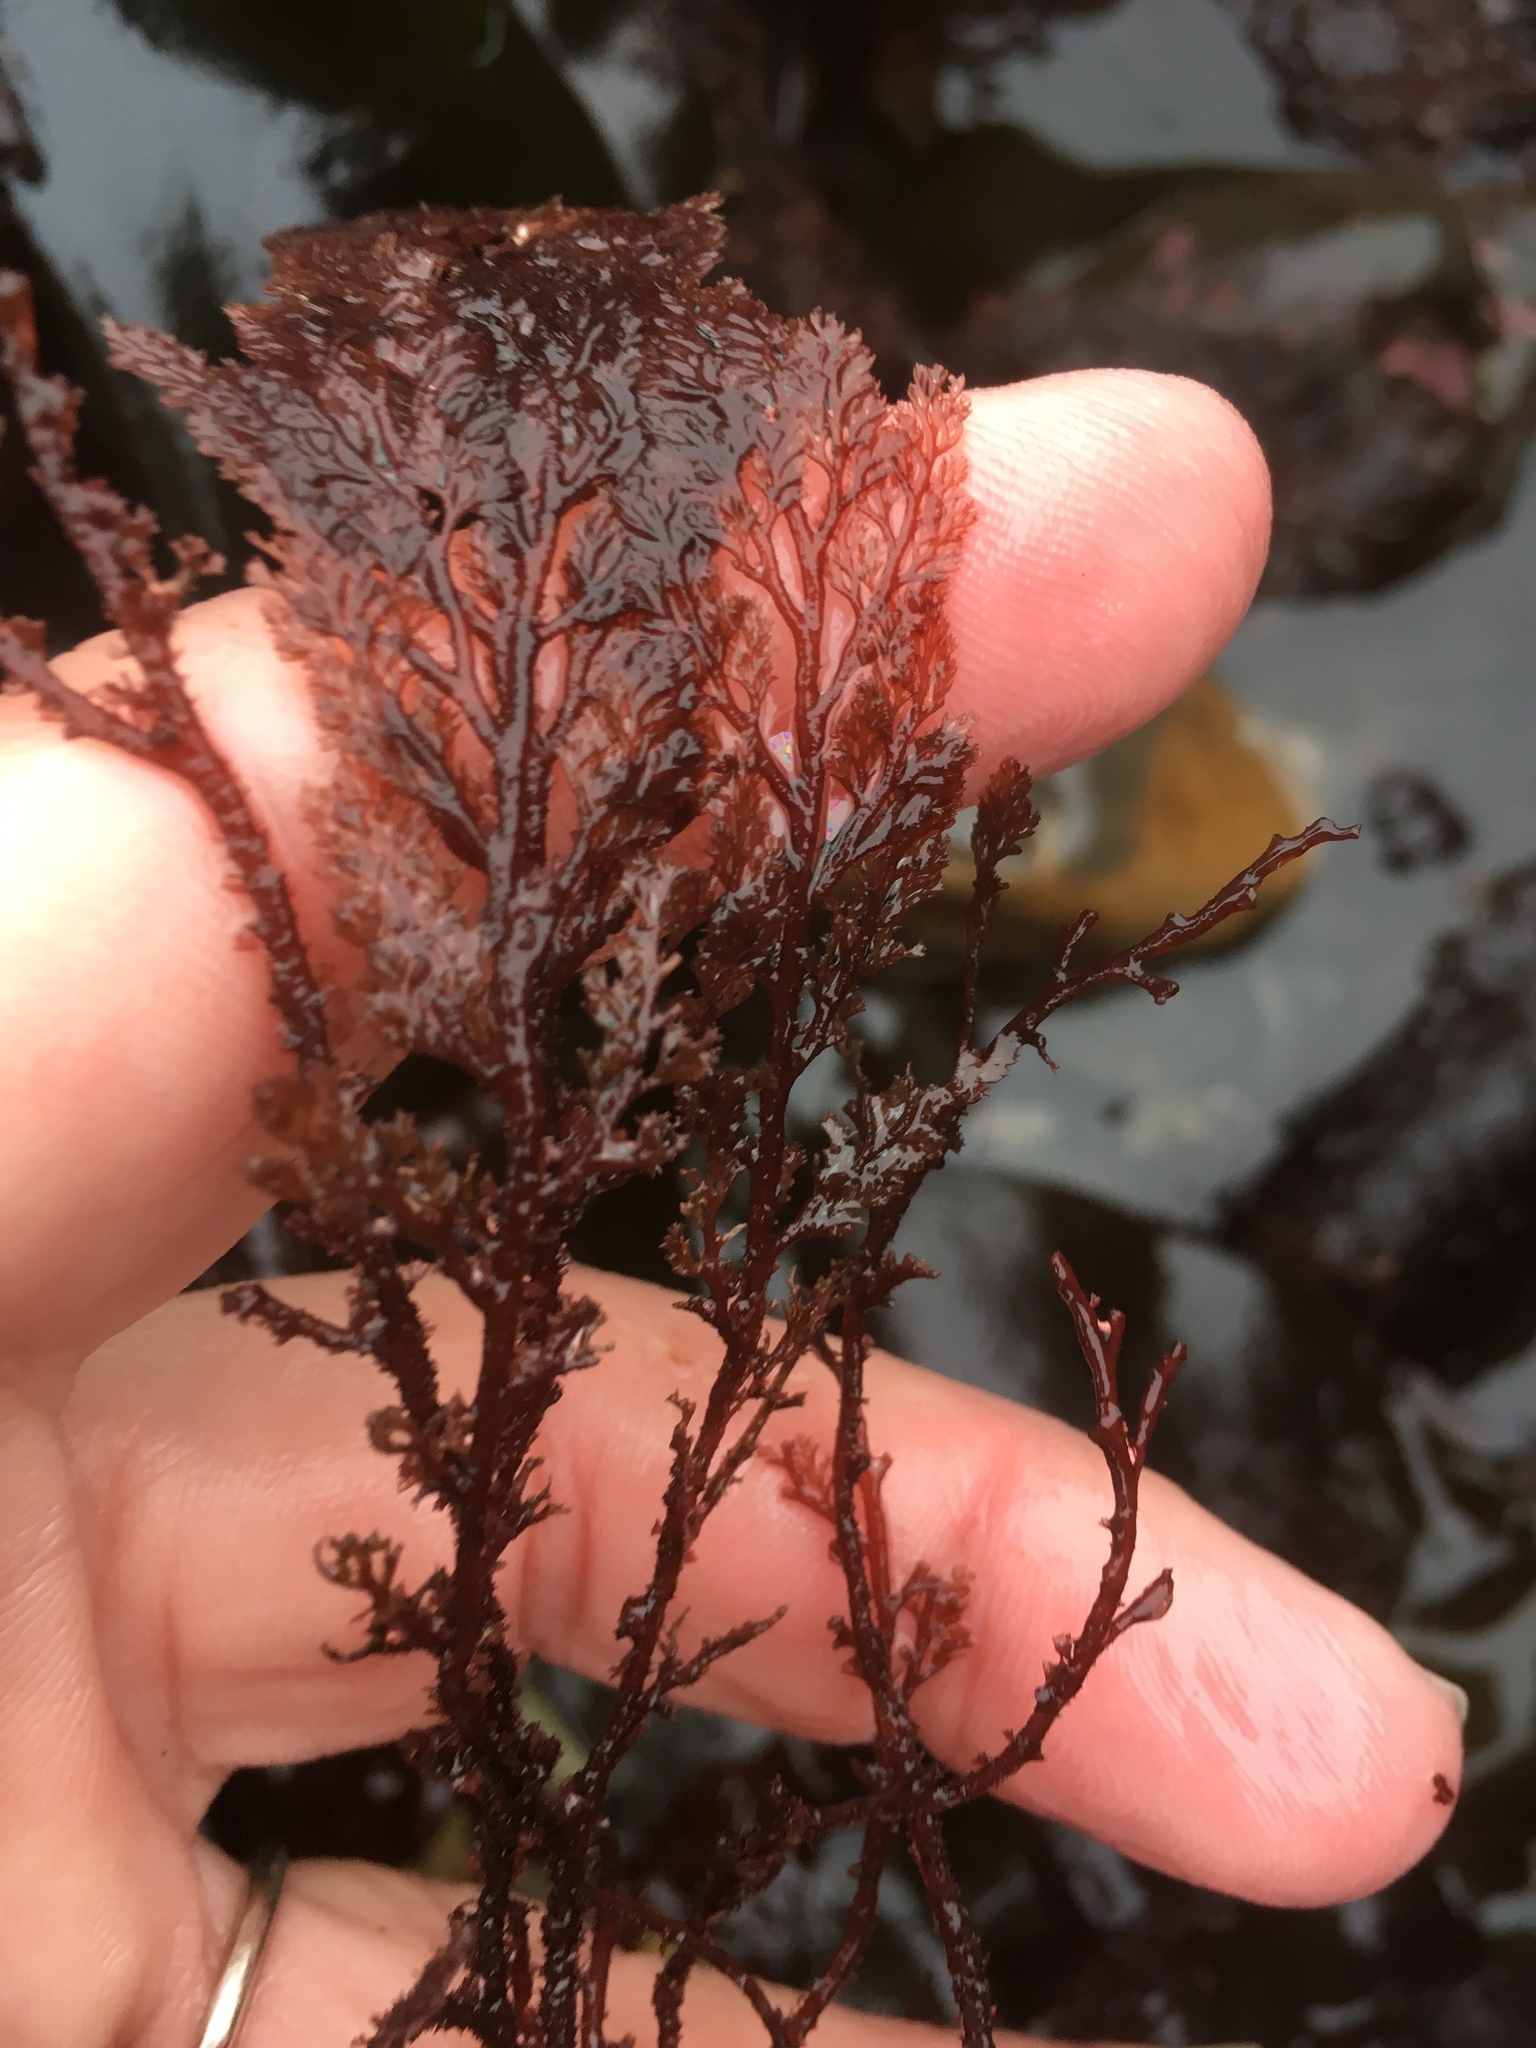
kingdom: Plantae
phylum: Rhodophyta
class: Florideophyceae
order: Ceramiales
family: Ceramiaceae
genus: Microcladia
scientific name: Microcladia coulteri
